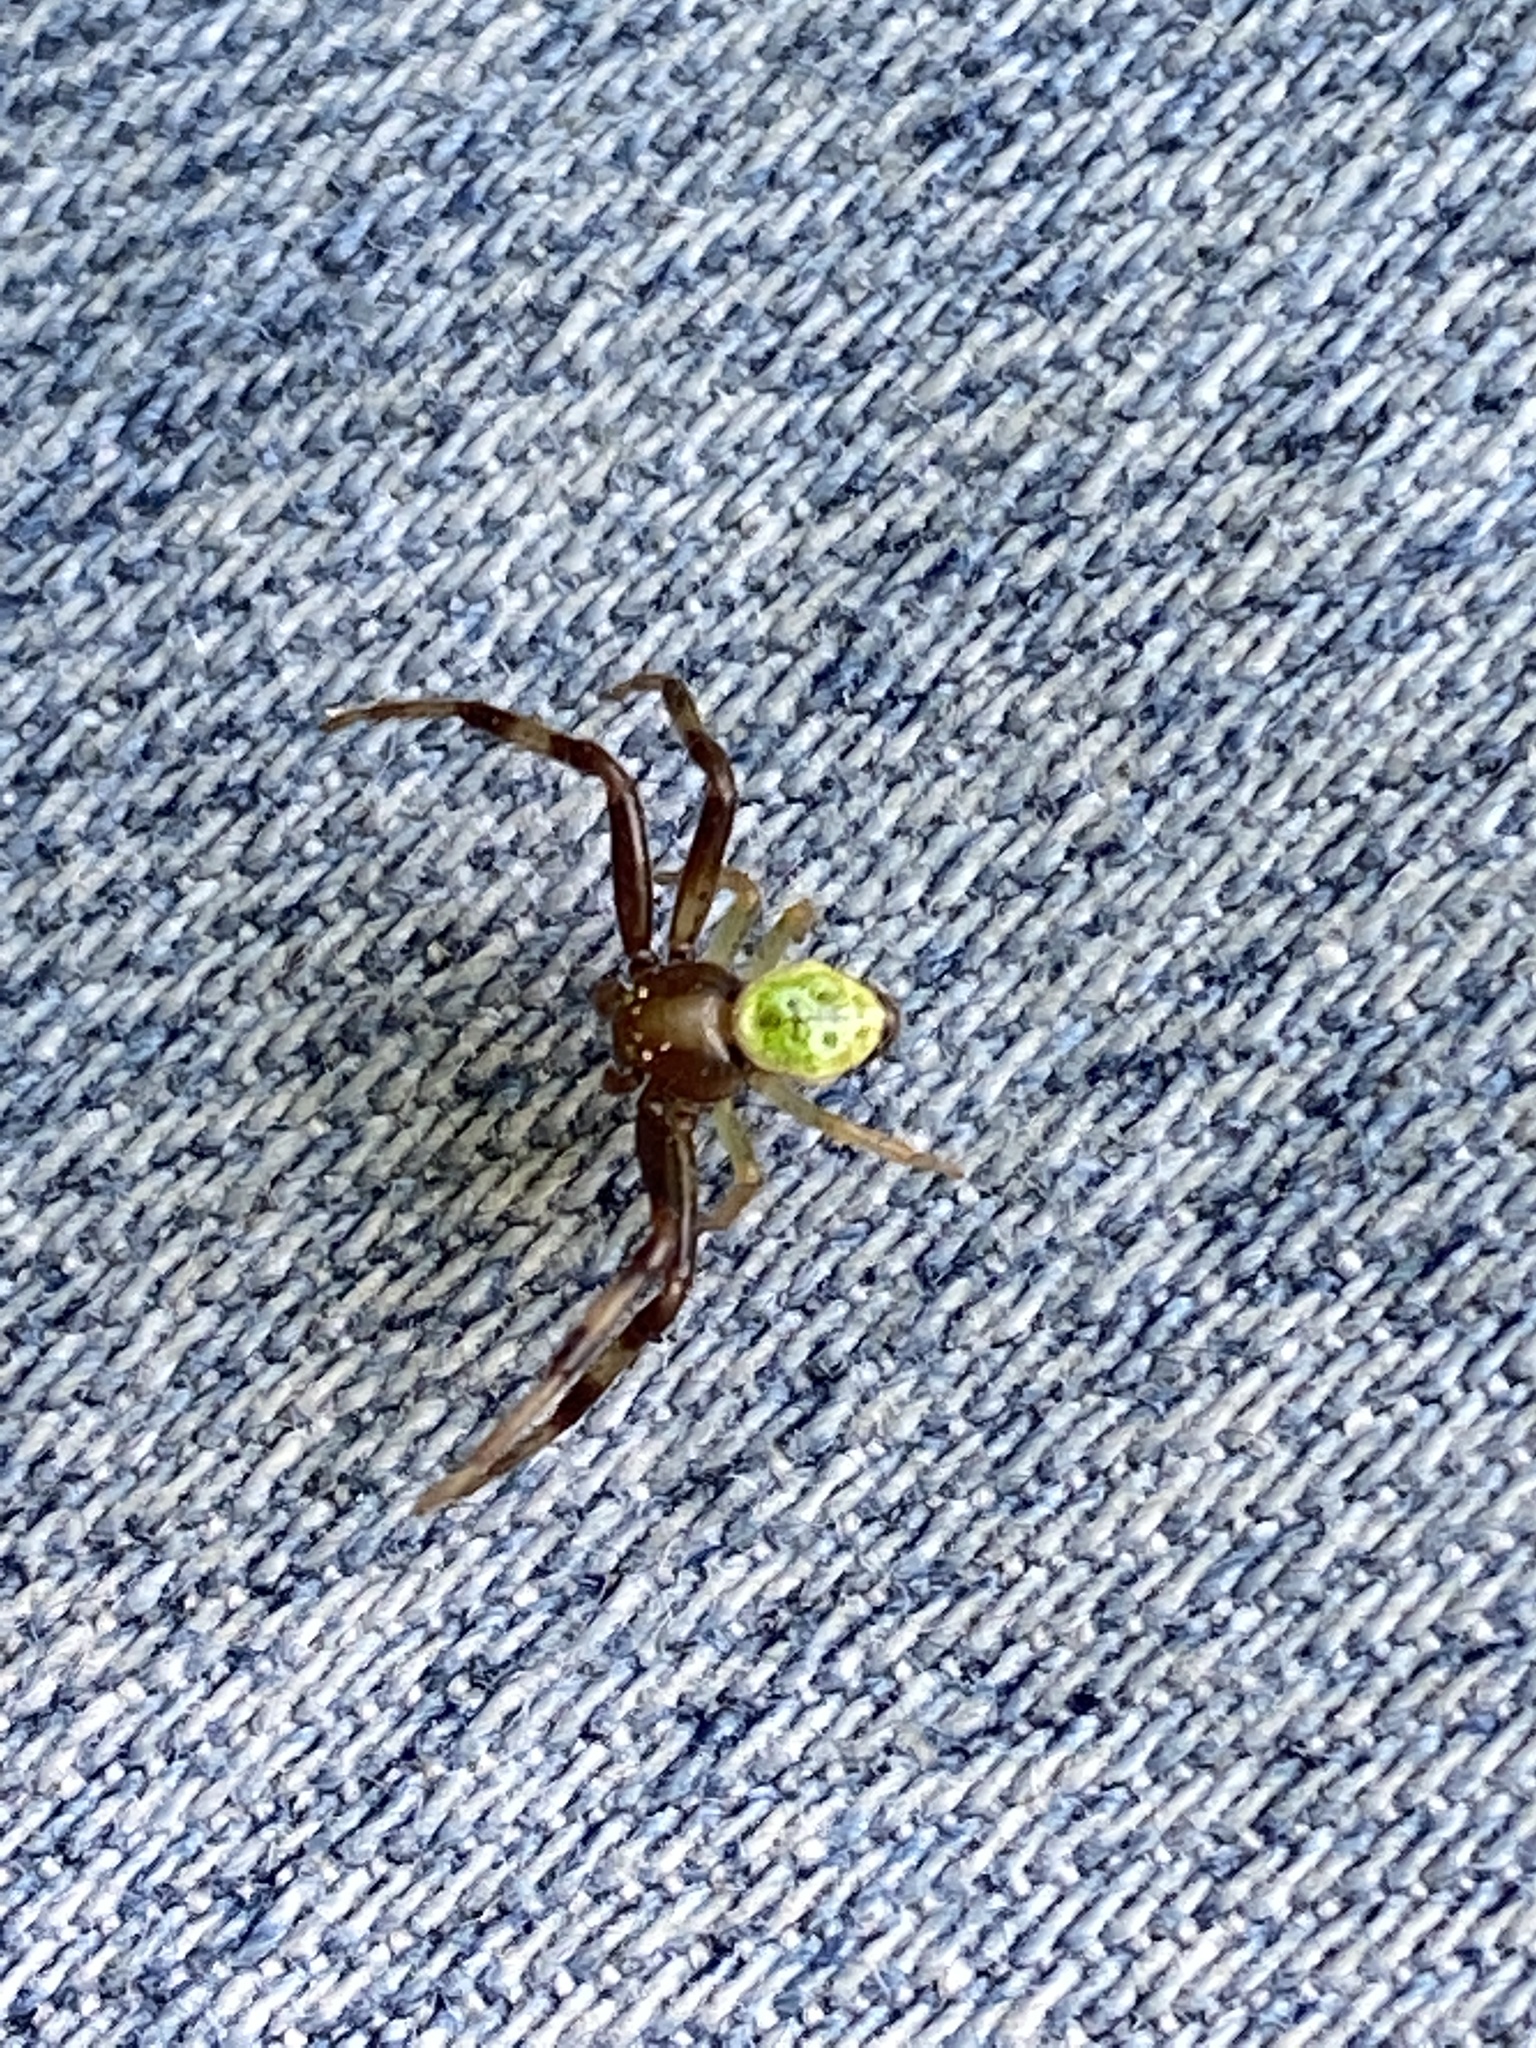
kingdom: Animalia
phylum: Arthropoda
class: Arachnida
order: Araneae
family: Thomisidae
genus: Ebrechtella
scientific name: Ebrechtella tricuspidata
